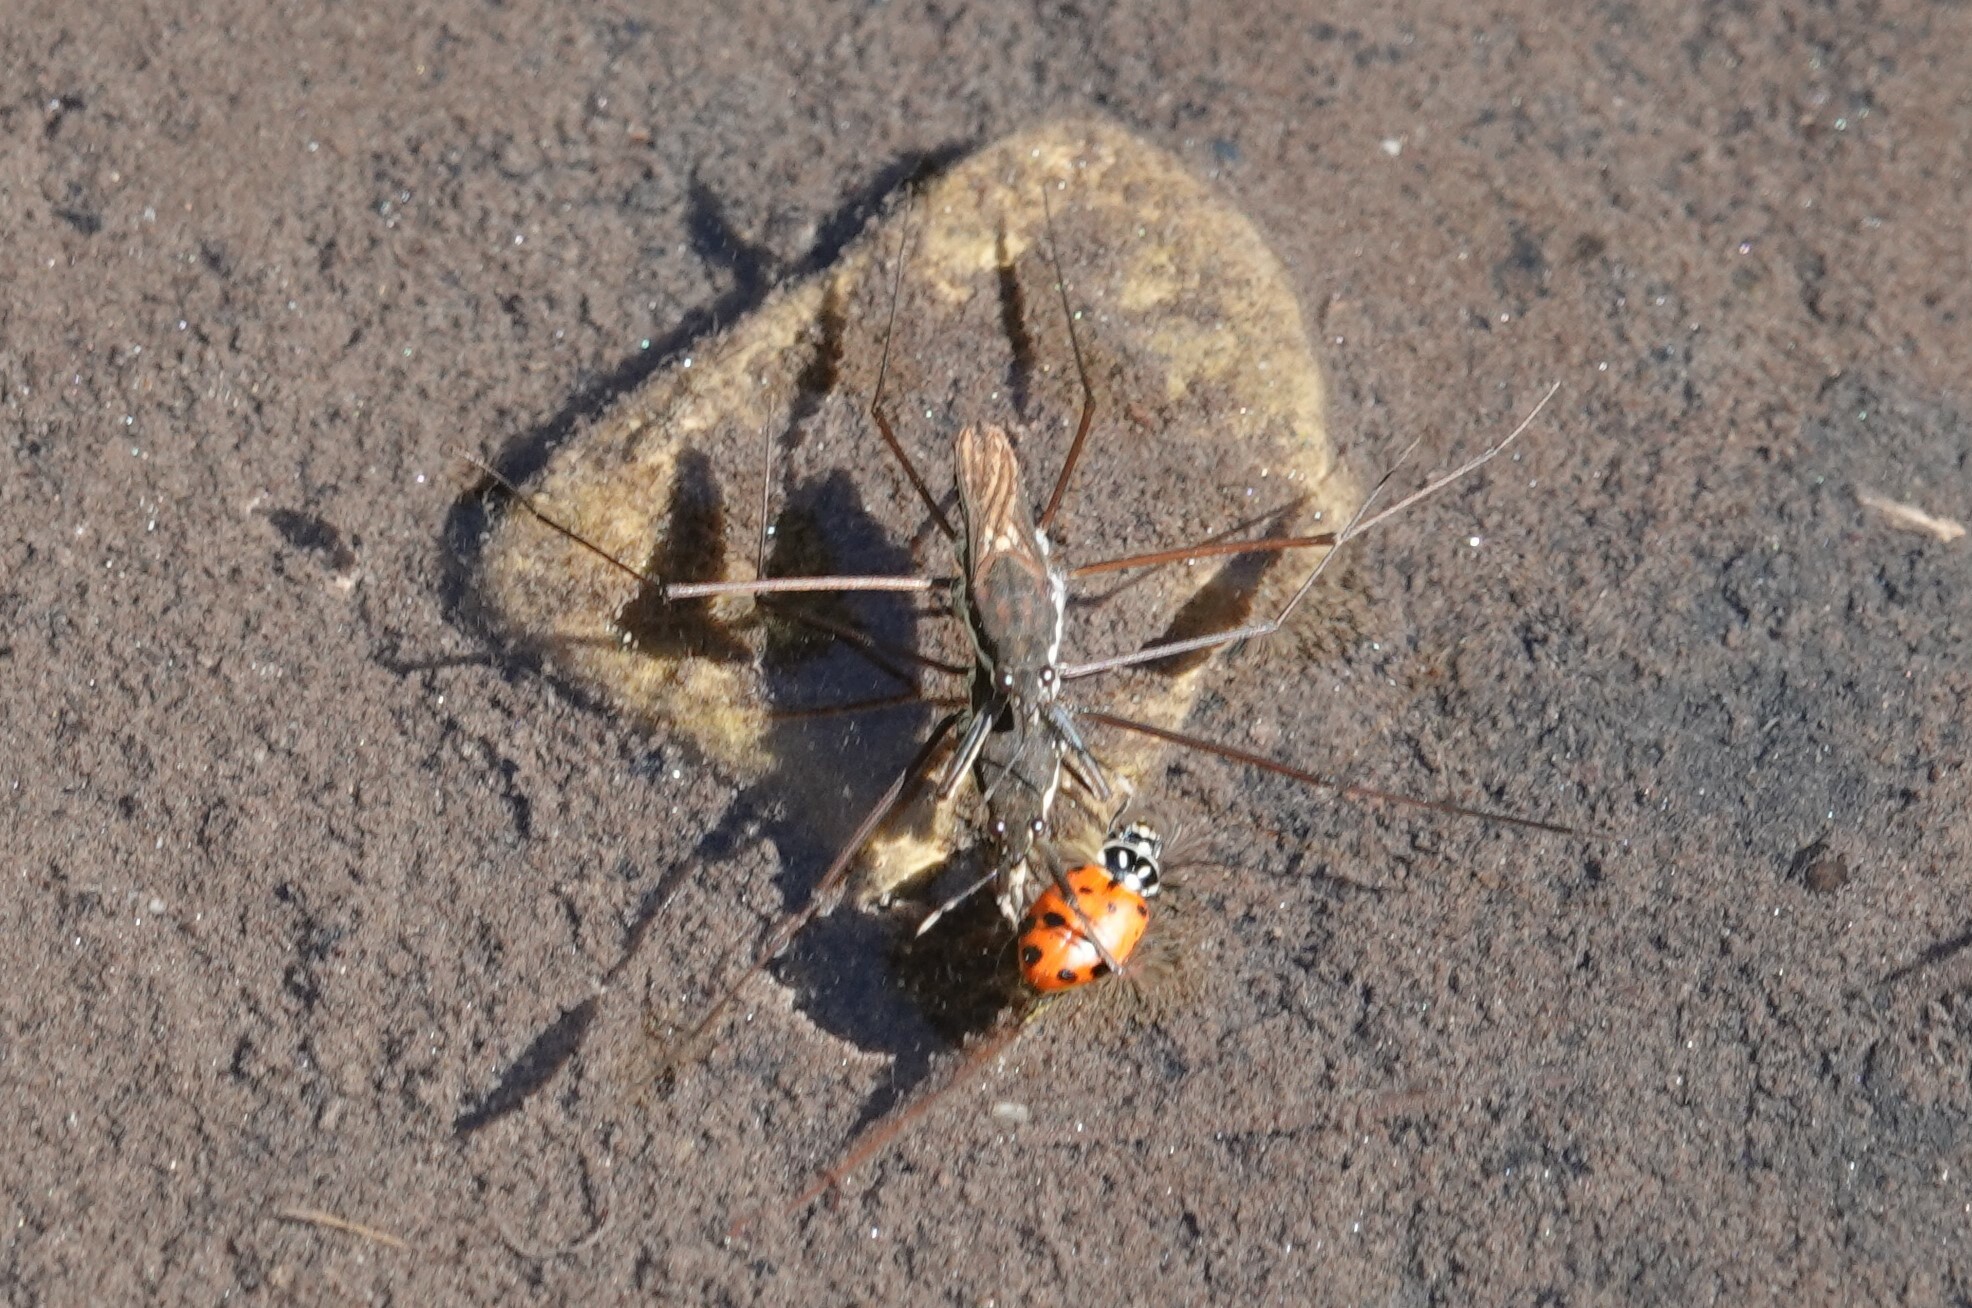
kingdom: Animalia
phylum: Arthropoda
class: Insecta
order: Hemiptera
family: Gerridae
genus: Aquarius
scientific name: Aquarius remigis
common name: Common water strider
